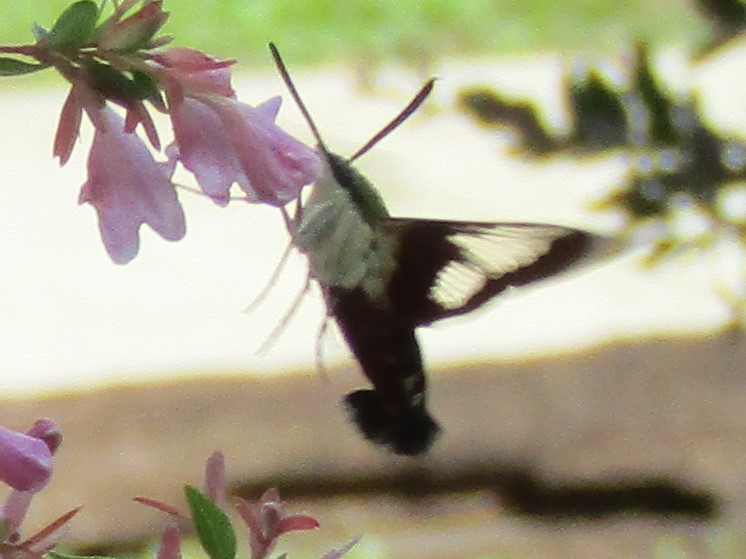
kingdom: Animalia
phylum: Arthropoda
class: Insecta
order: Lepidoptera
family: Sphingidae
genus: Hemaris
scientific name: Hemaris thysbe
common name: Common clear-wing
